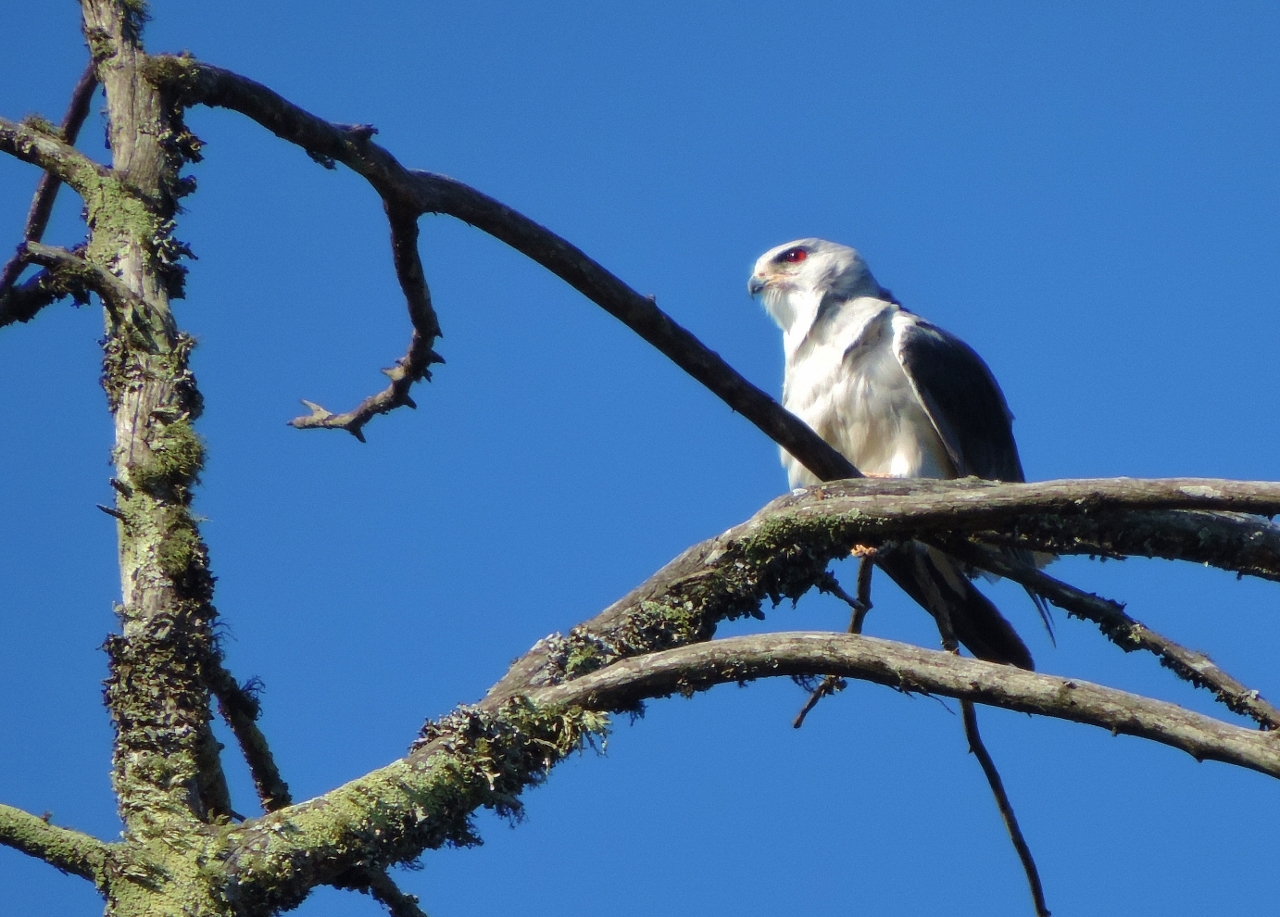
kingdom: Animalia
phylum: Chordata
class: Aves
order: Accipitriformes
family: Accipitridae
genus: Elanus
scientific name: Elanus caeruleus
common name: Black-winged kite
